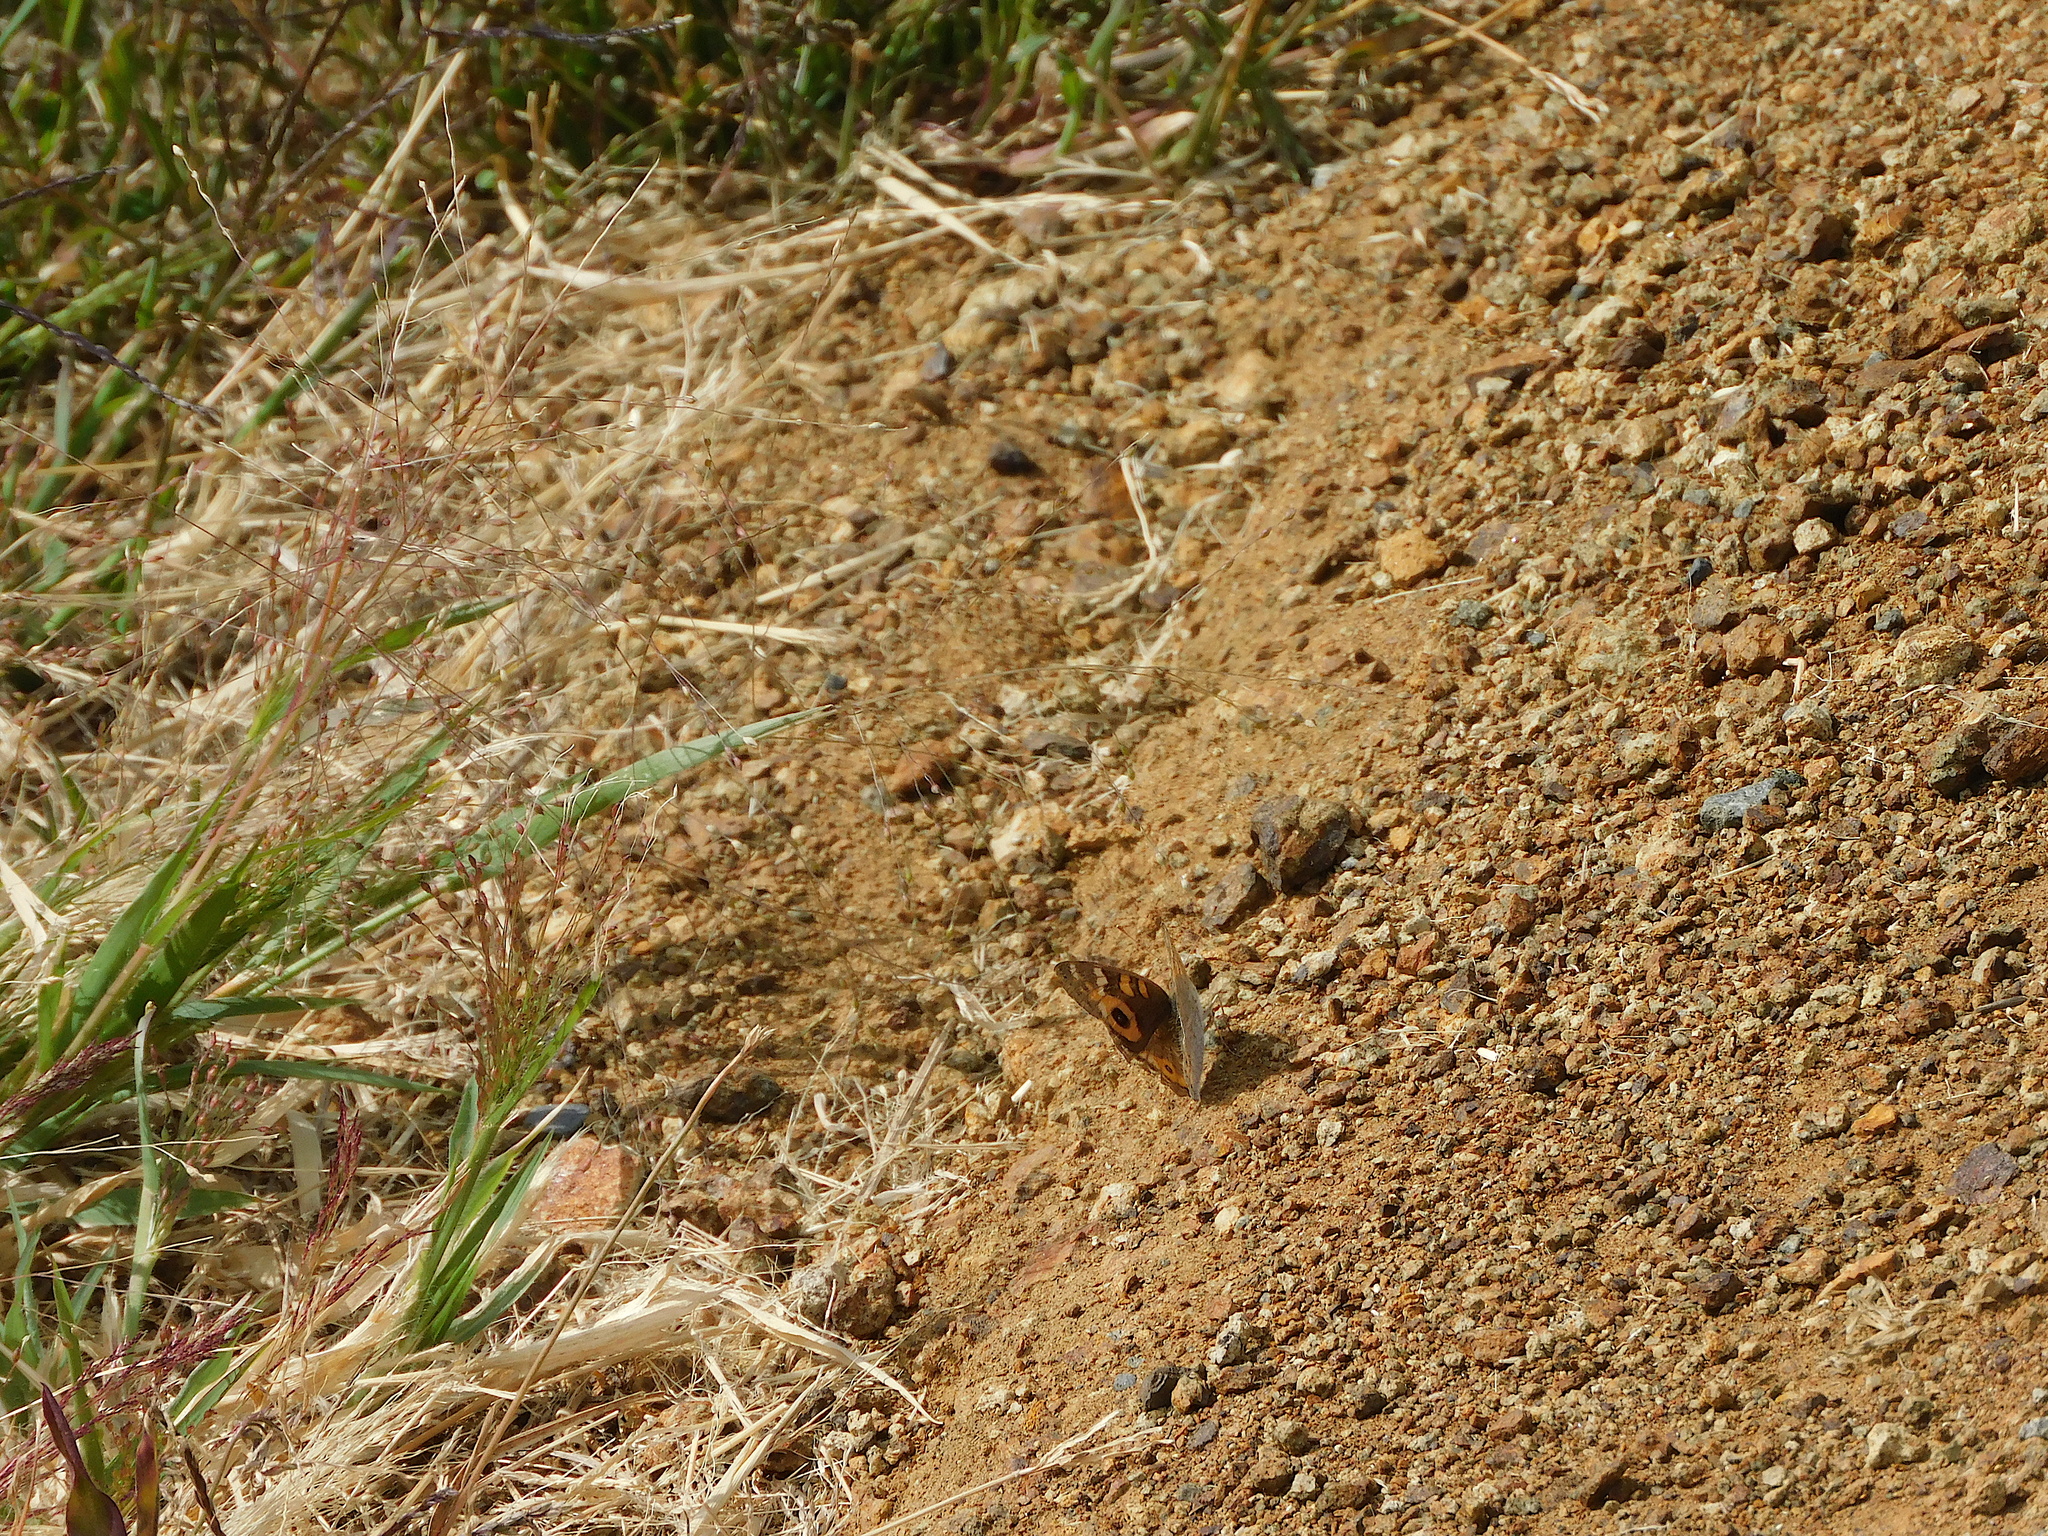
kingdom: Animalia
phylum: Arthropoda
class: Insecta
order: Lepidoptera
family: Nymphalidae
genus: Junonia
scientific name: Junonia villida
